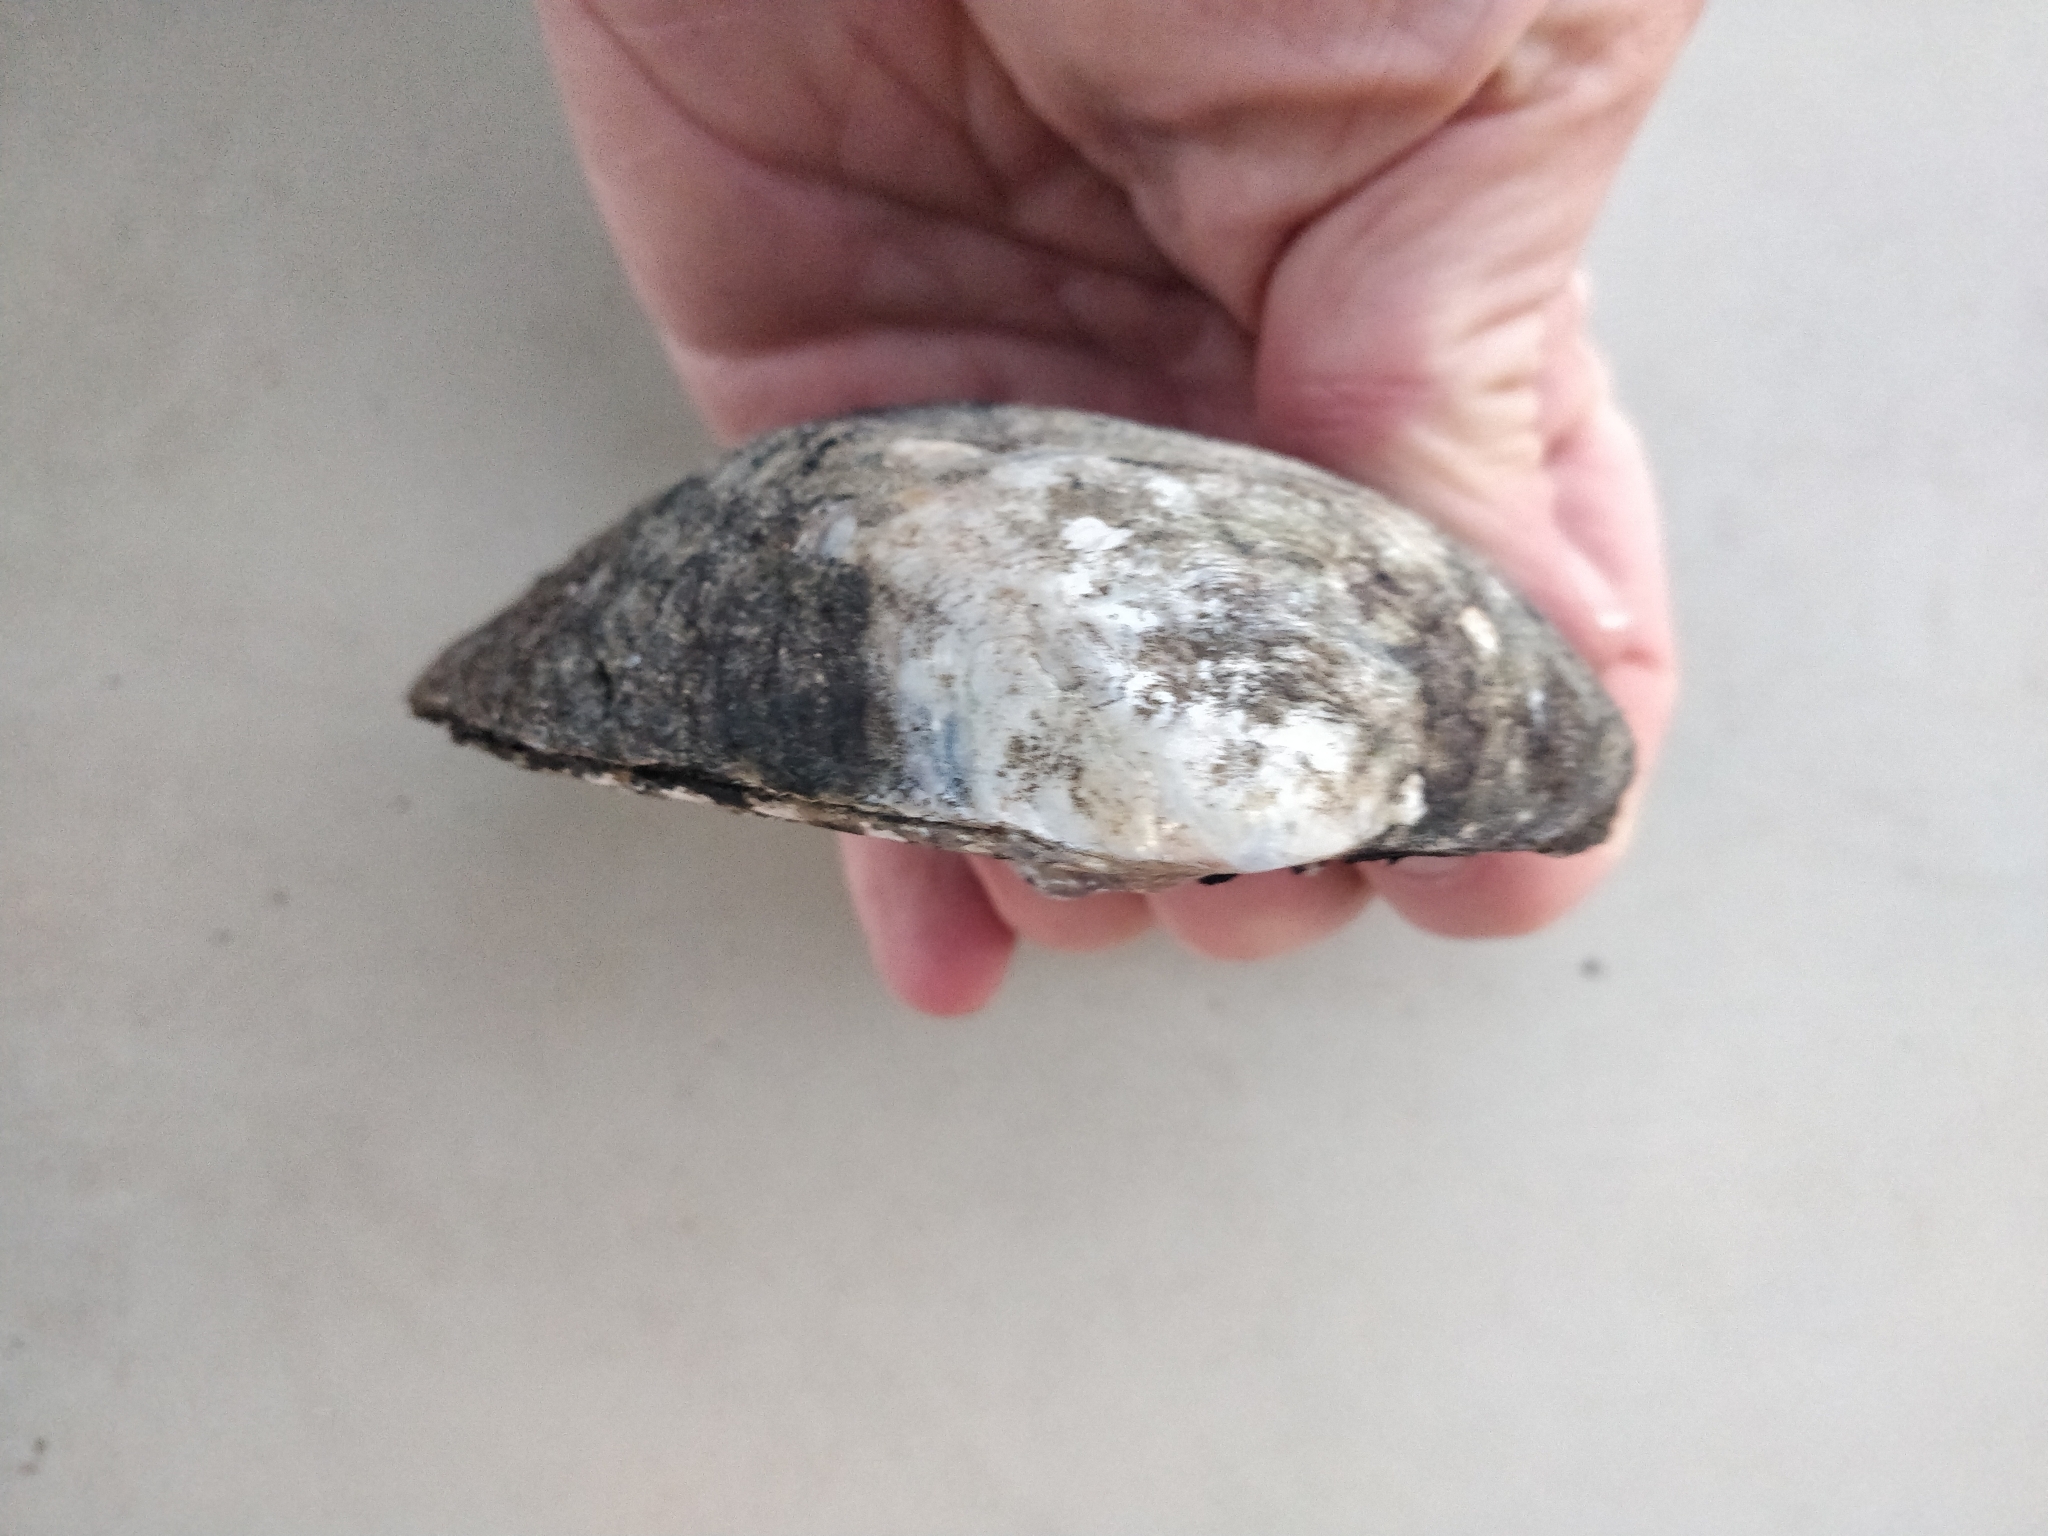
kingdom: Animalia
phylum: Mollusca
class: Bivalvia
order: Unionida
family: Unionidae
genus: Amblema
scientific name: Amblema plicata
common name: Threeridge
